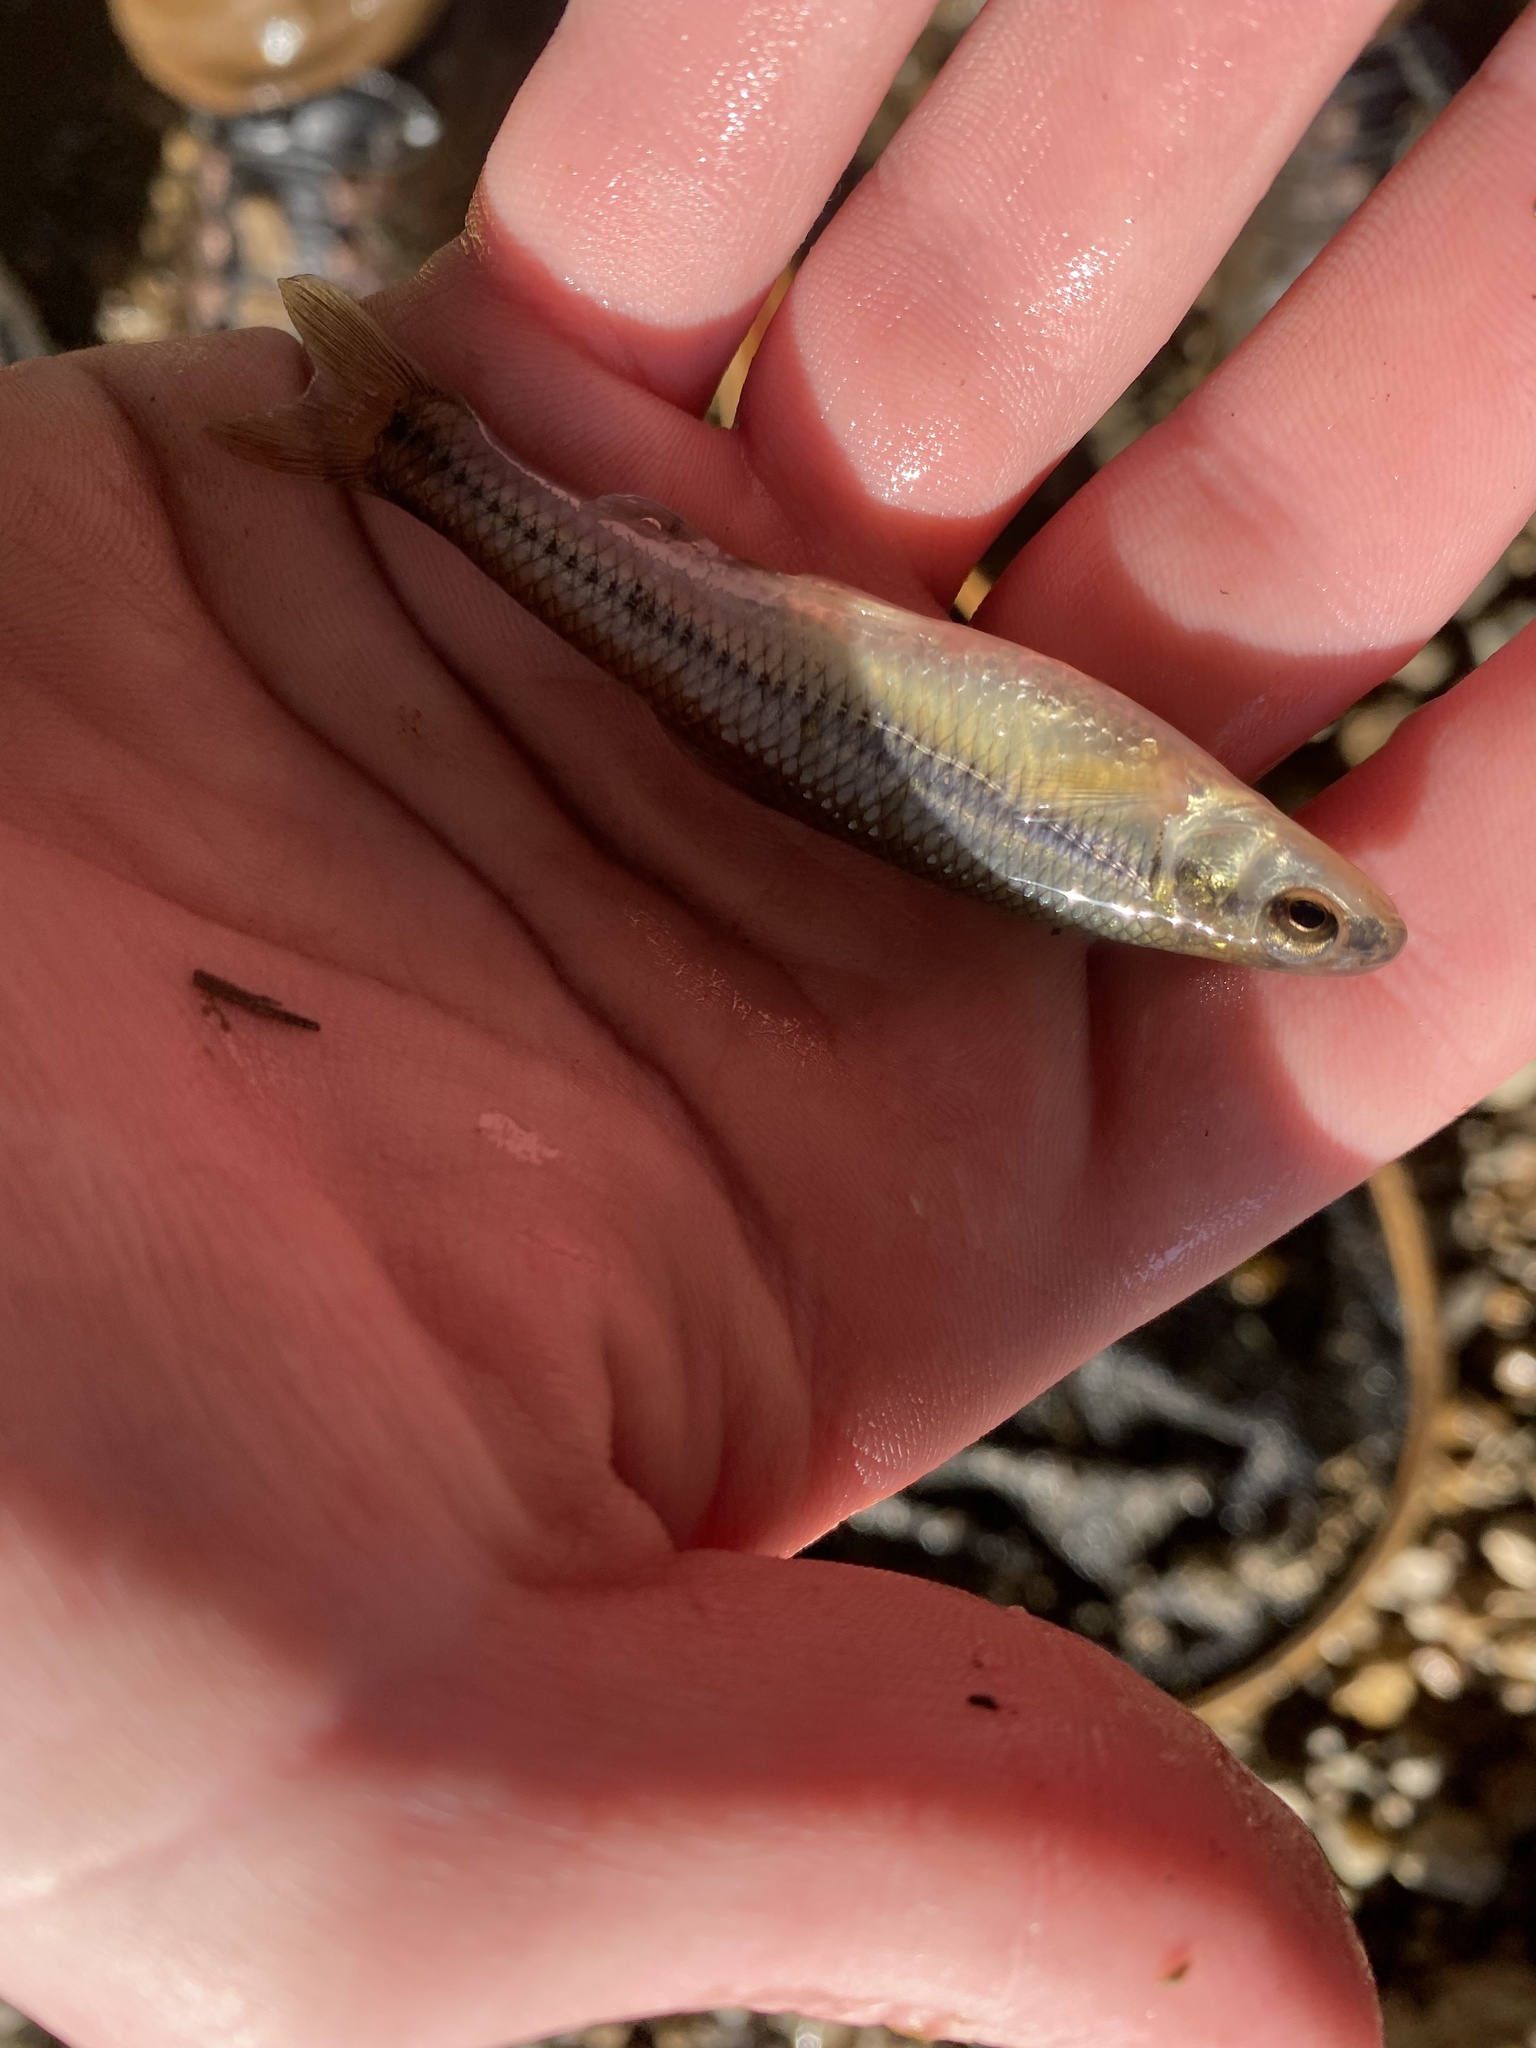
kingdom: Animalia
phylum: Chordata
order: Cypriniformes
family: Cyprinidae
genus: Pimephales
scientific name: Pimephales notatus
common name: Bluntnose minnow
